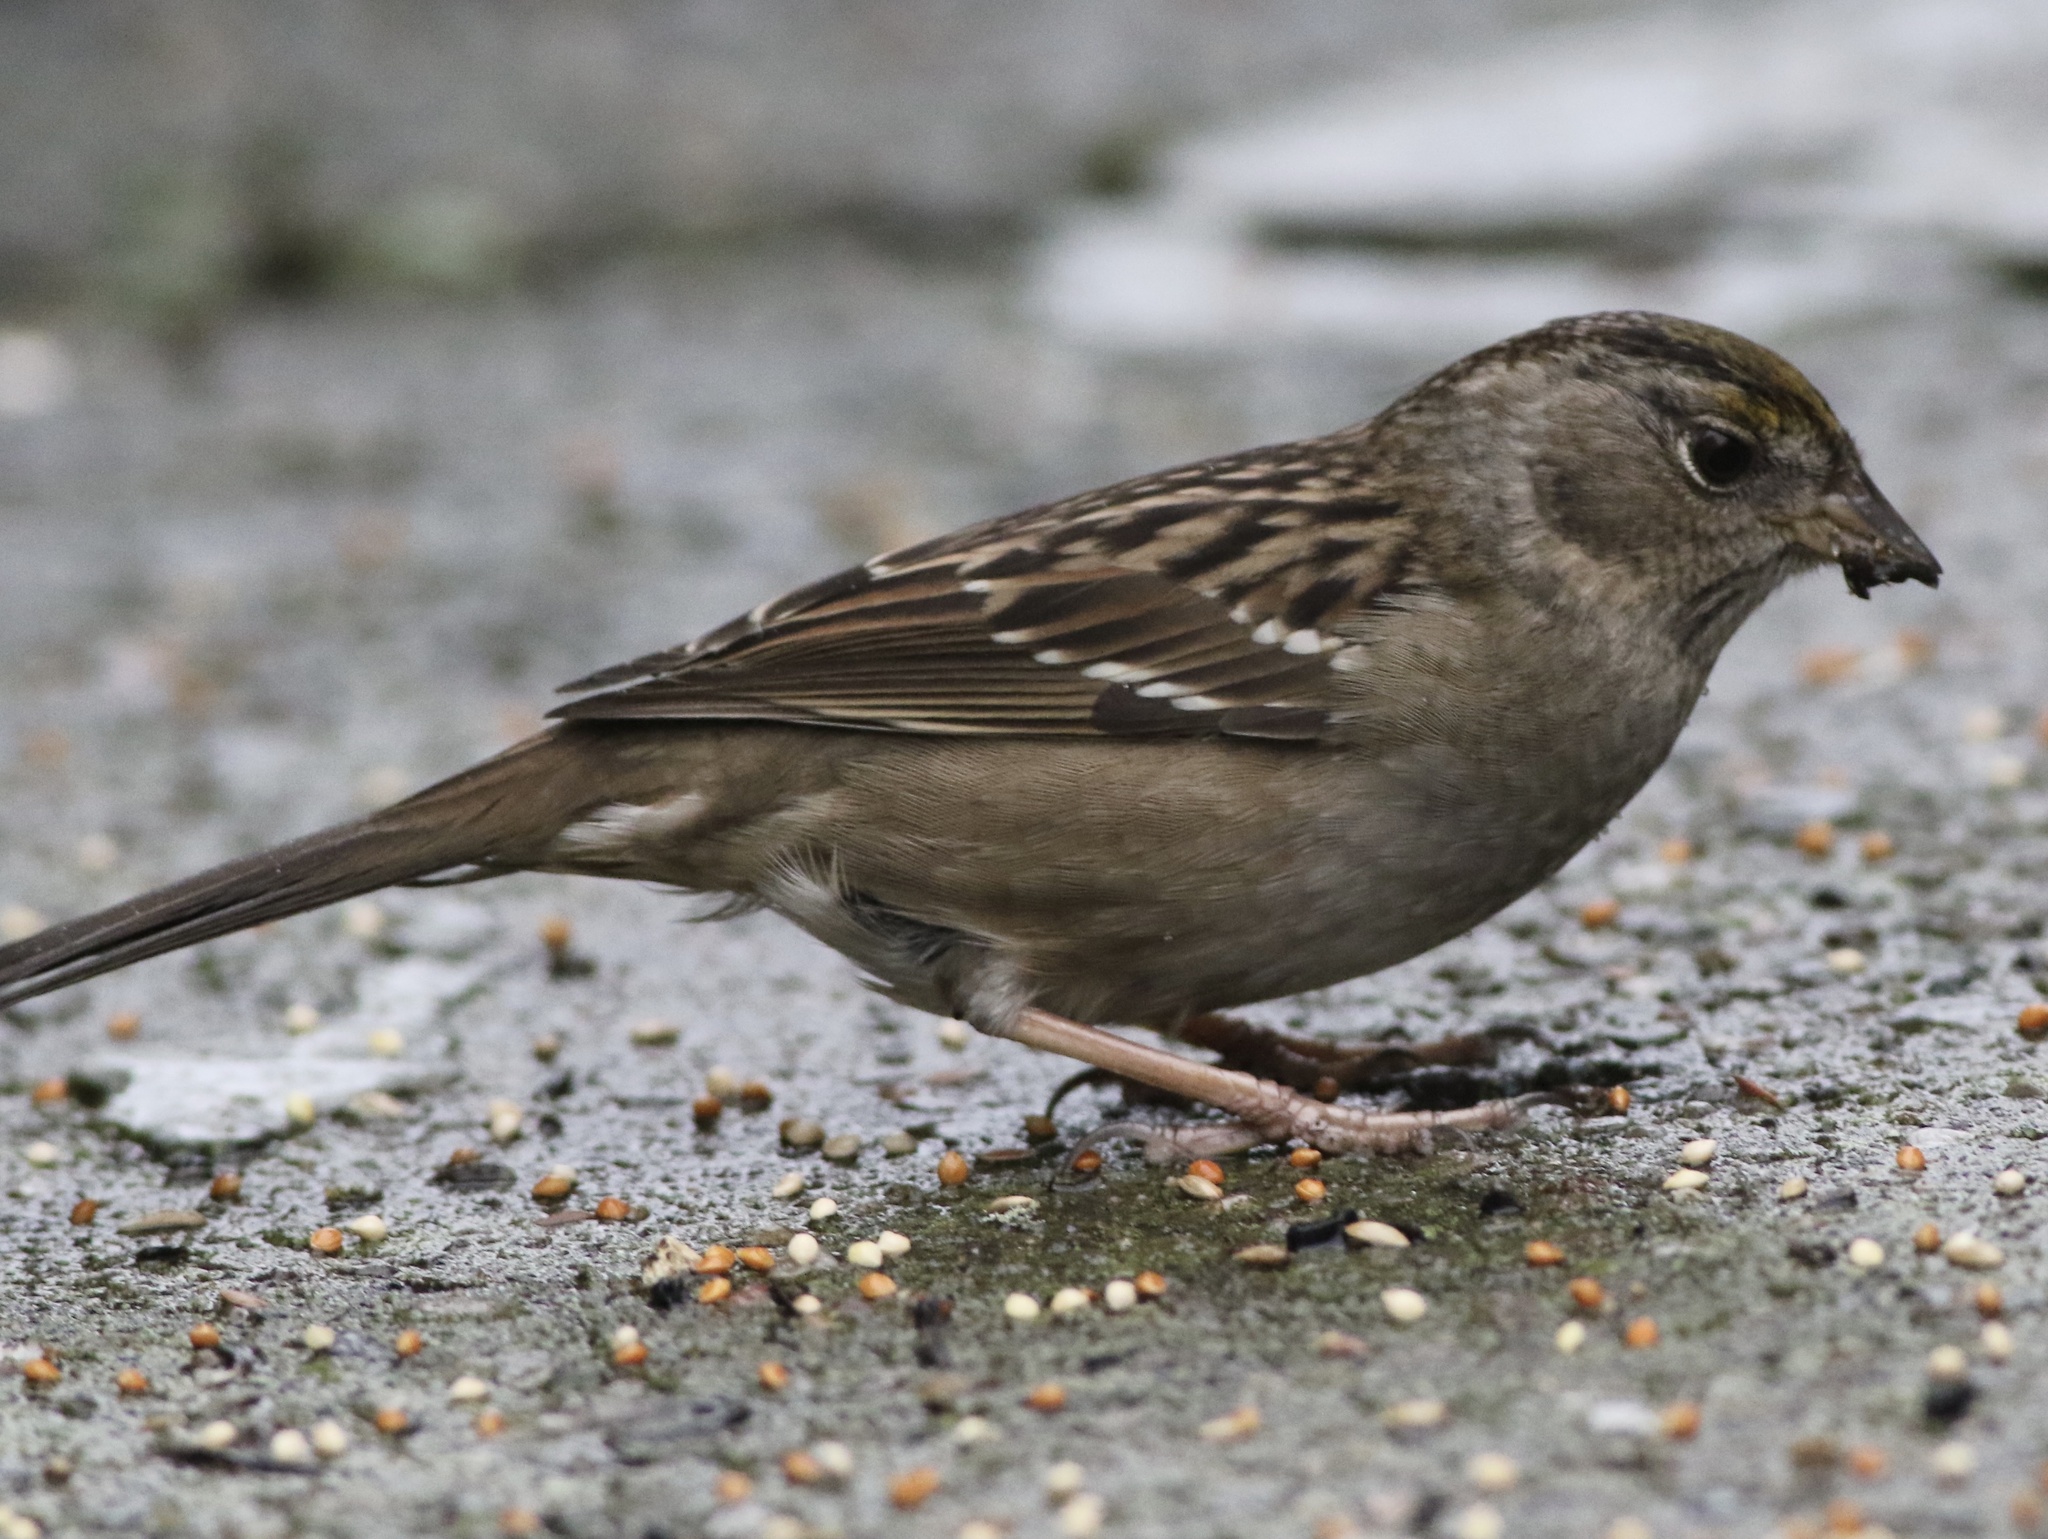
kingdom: Animalia
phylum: Chordata
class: Aves
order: Passeriformes
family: Passerellidae
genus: Zonotrichia
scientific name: Zonotrichia atricapilla
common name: Golden-crowned sparrow
